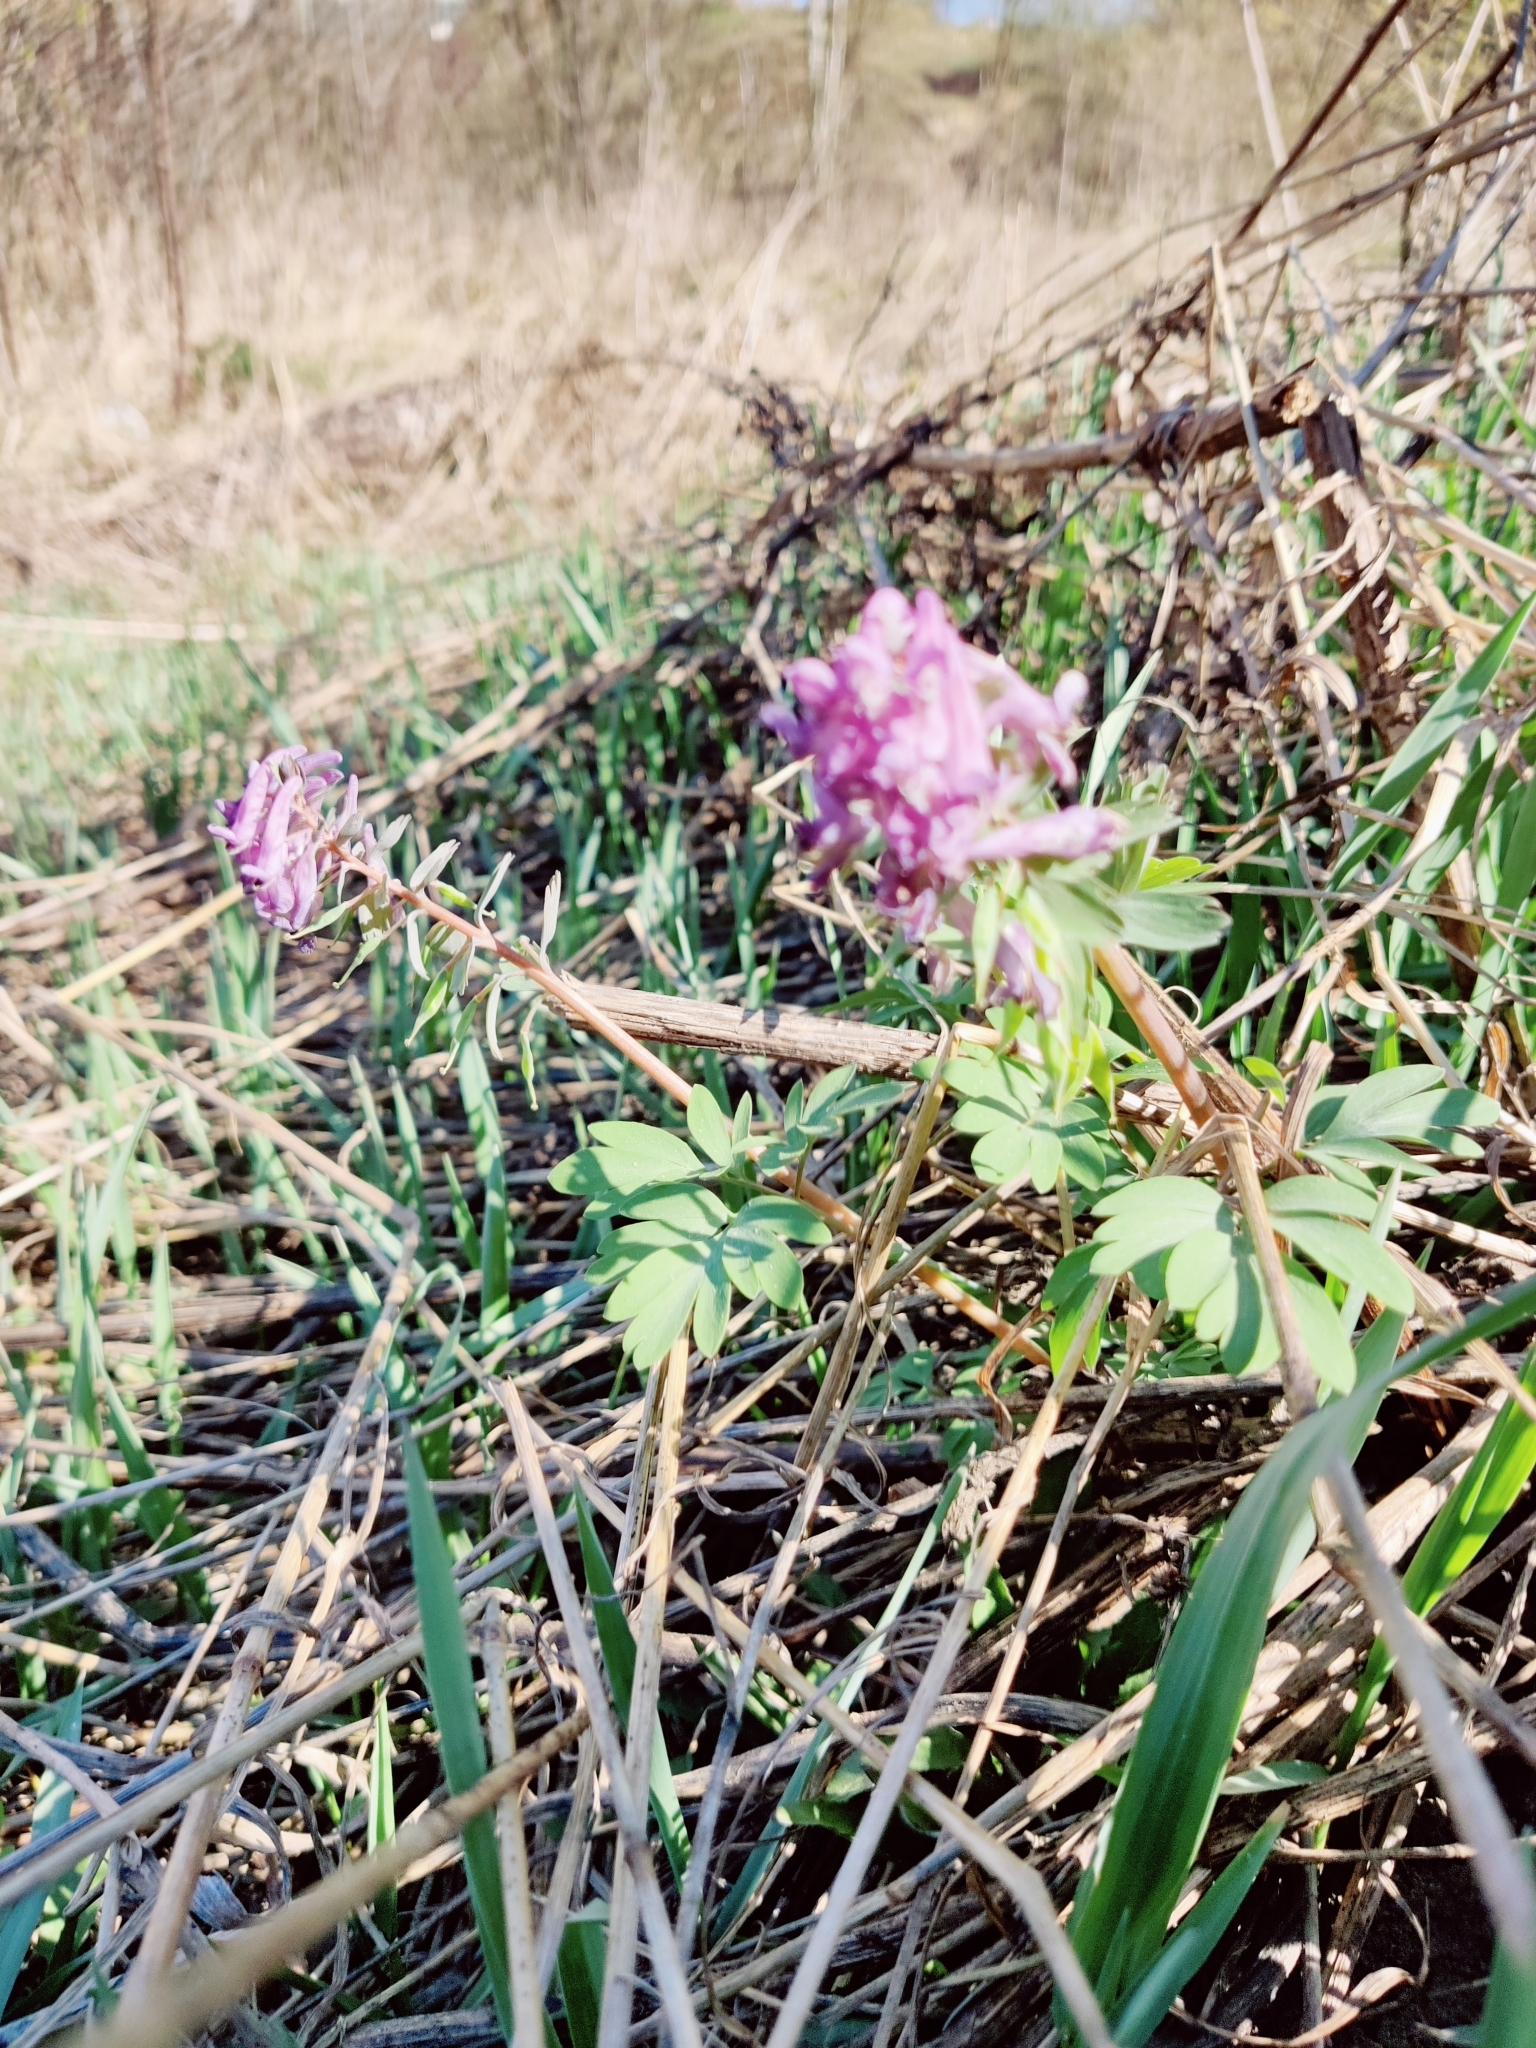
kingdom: Plantae
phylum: Tracheophyta
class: Magnoliopsida
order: Ranunculales
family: Papaveraceae
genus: Corydalis
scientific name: Corydalis solida
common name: Bird-in-a-bush
